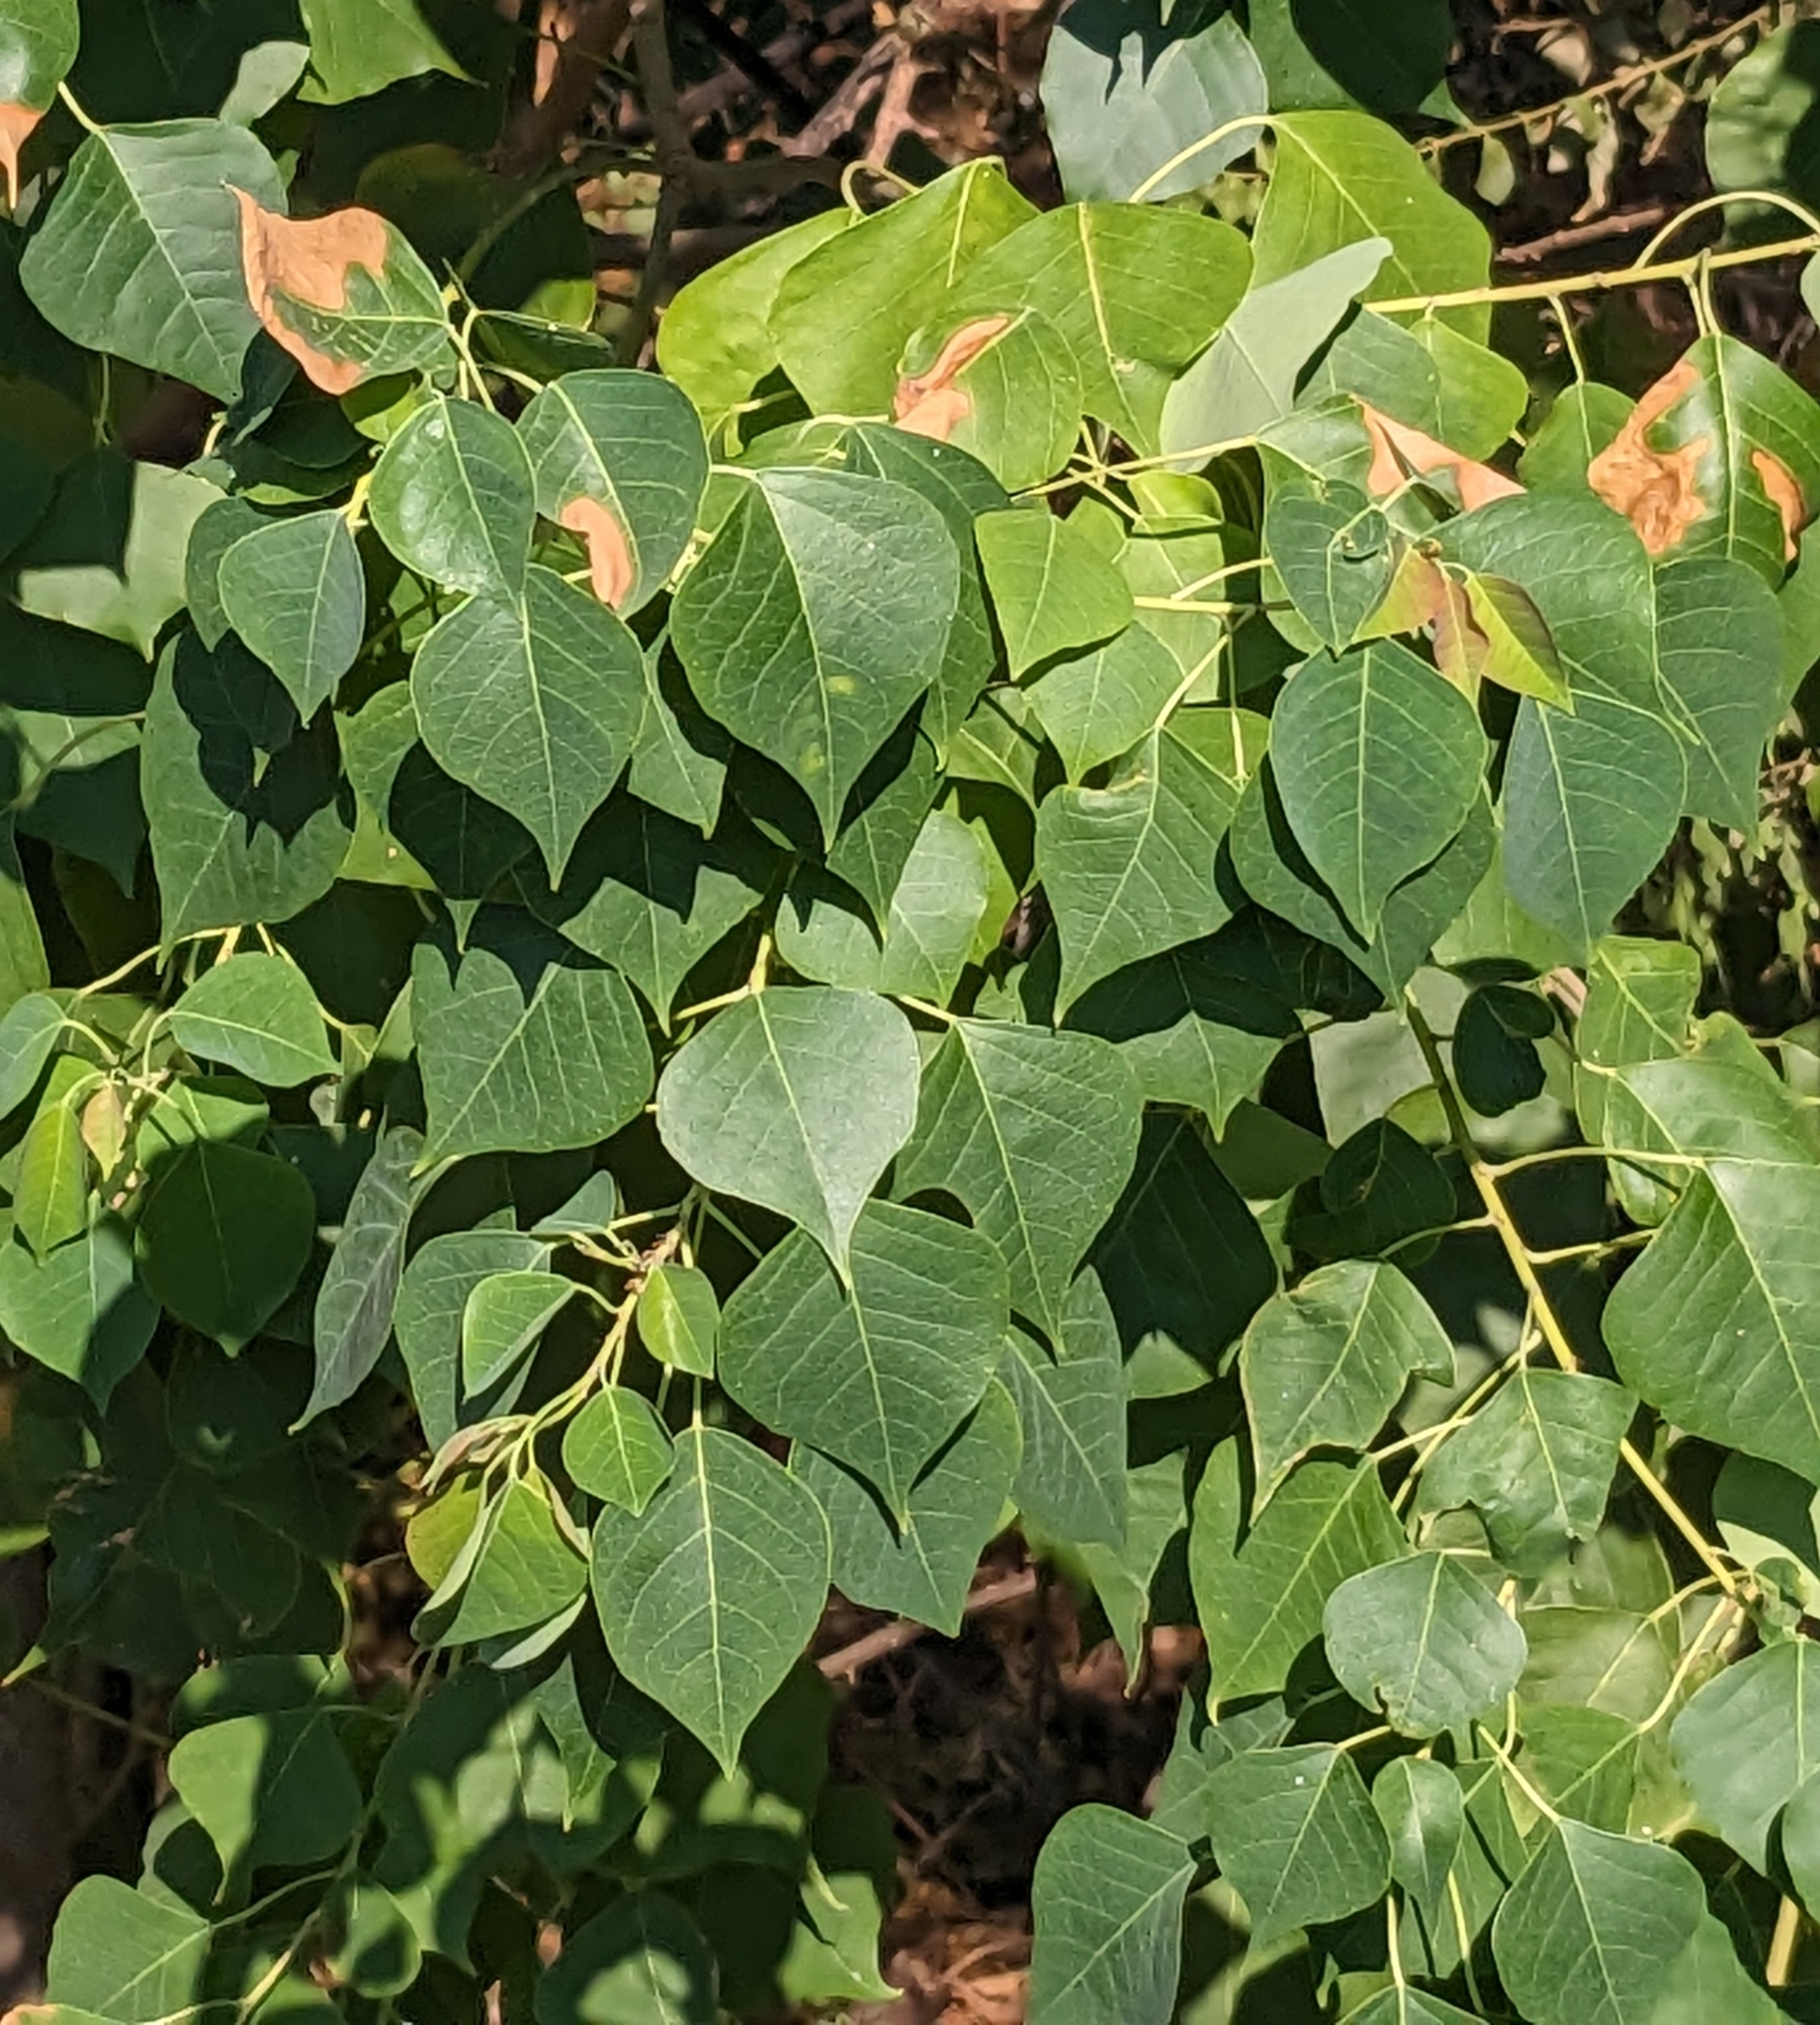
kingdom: Plantae
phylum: Tracheophyta
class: Magnoliopsida
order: Malpighiales
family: Euphorbiaceae
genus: Triadica
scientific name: Triadica sebifera
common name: Chinese tallow
